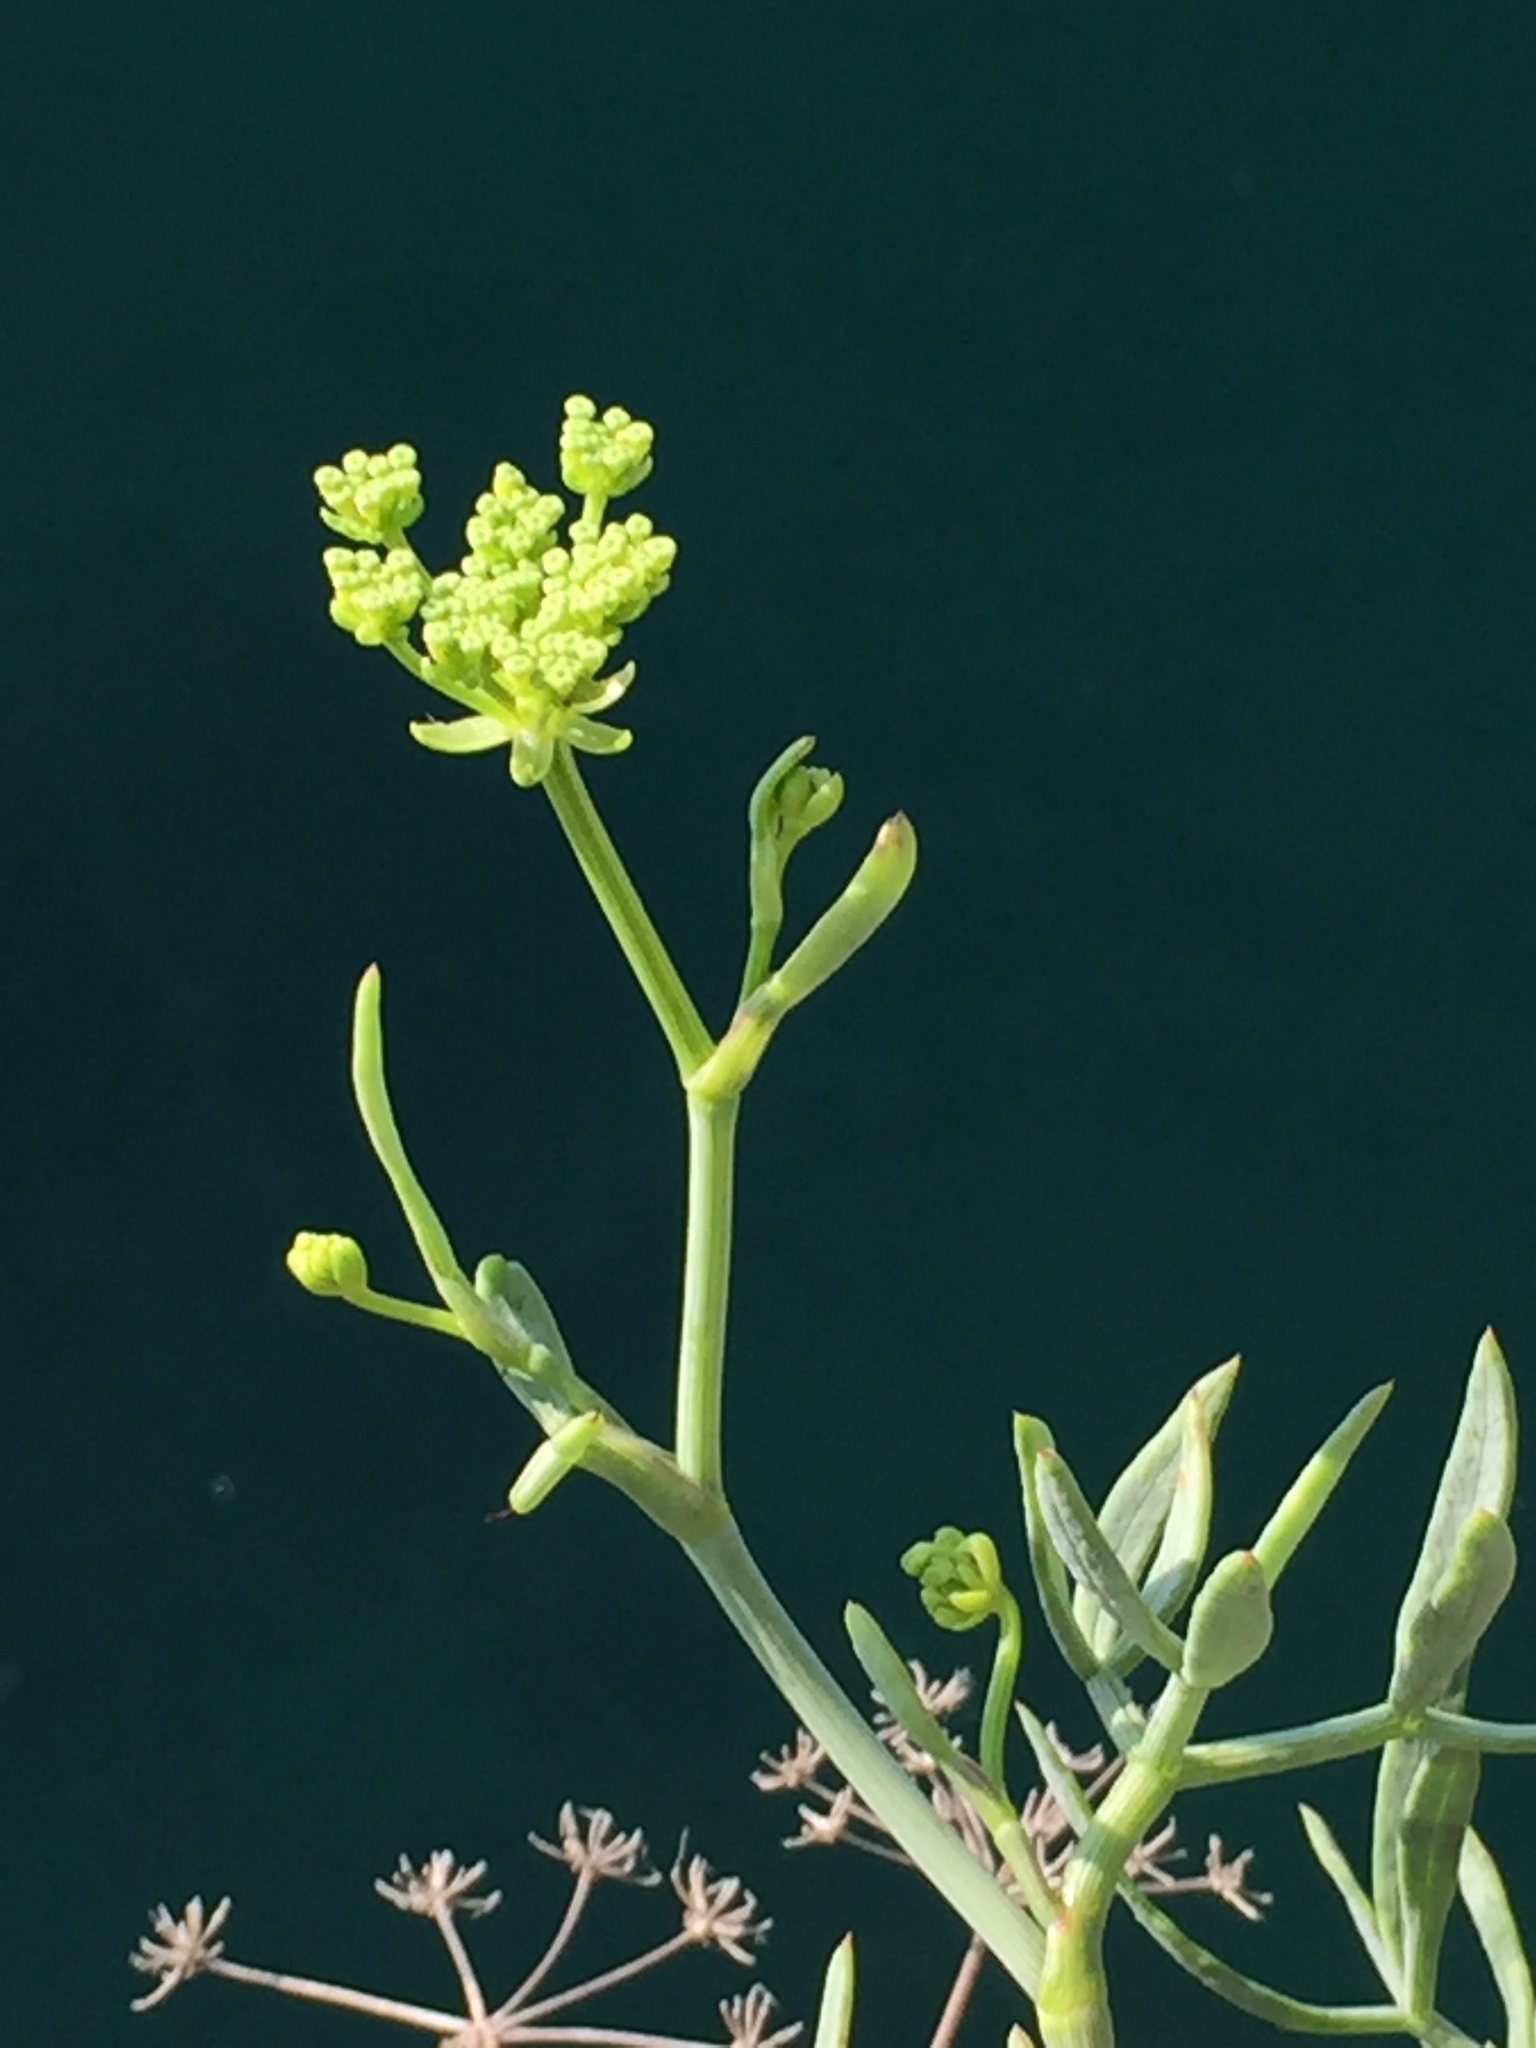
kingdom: Plantae
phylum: Tracheophyta
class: Magnoliopsida
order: Apiales
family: Apiaceae
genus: Crithmum
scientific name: Crithmum maritimum
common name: Rock samphire
